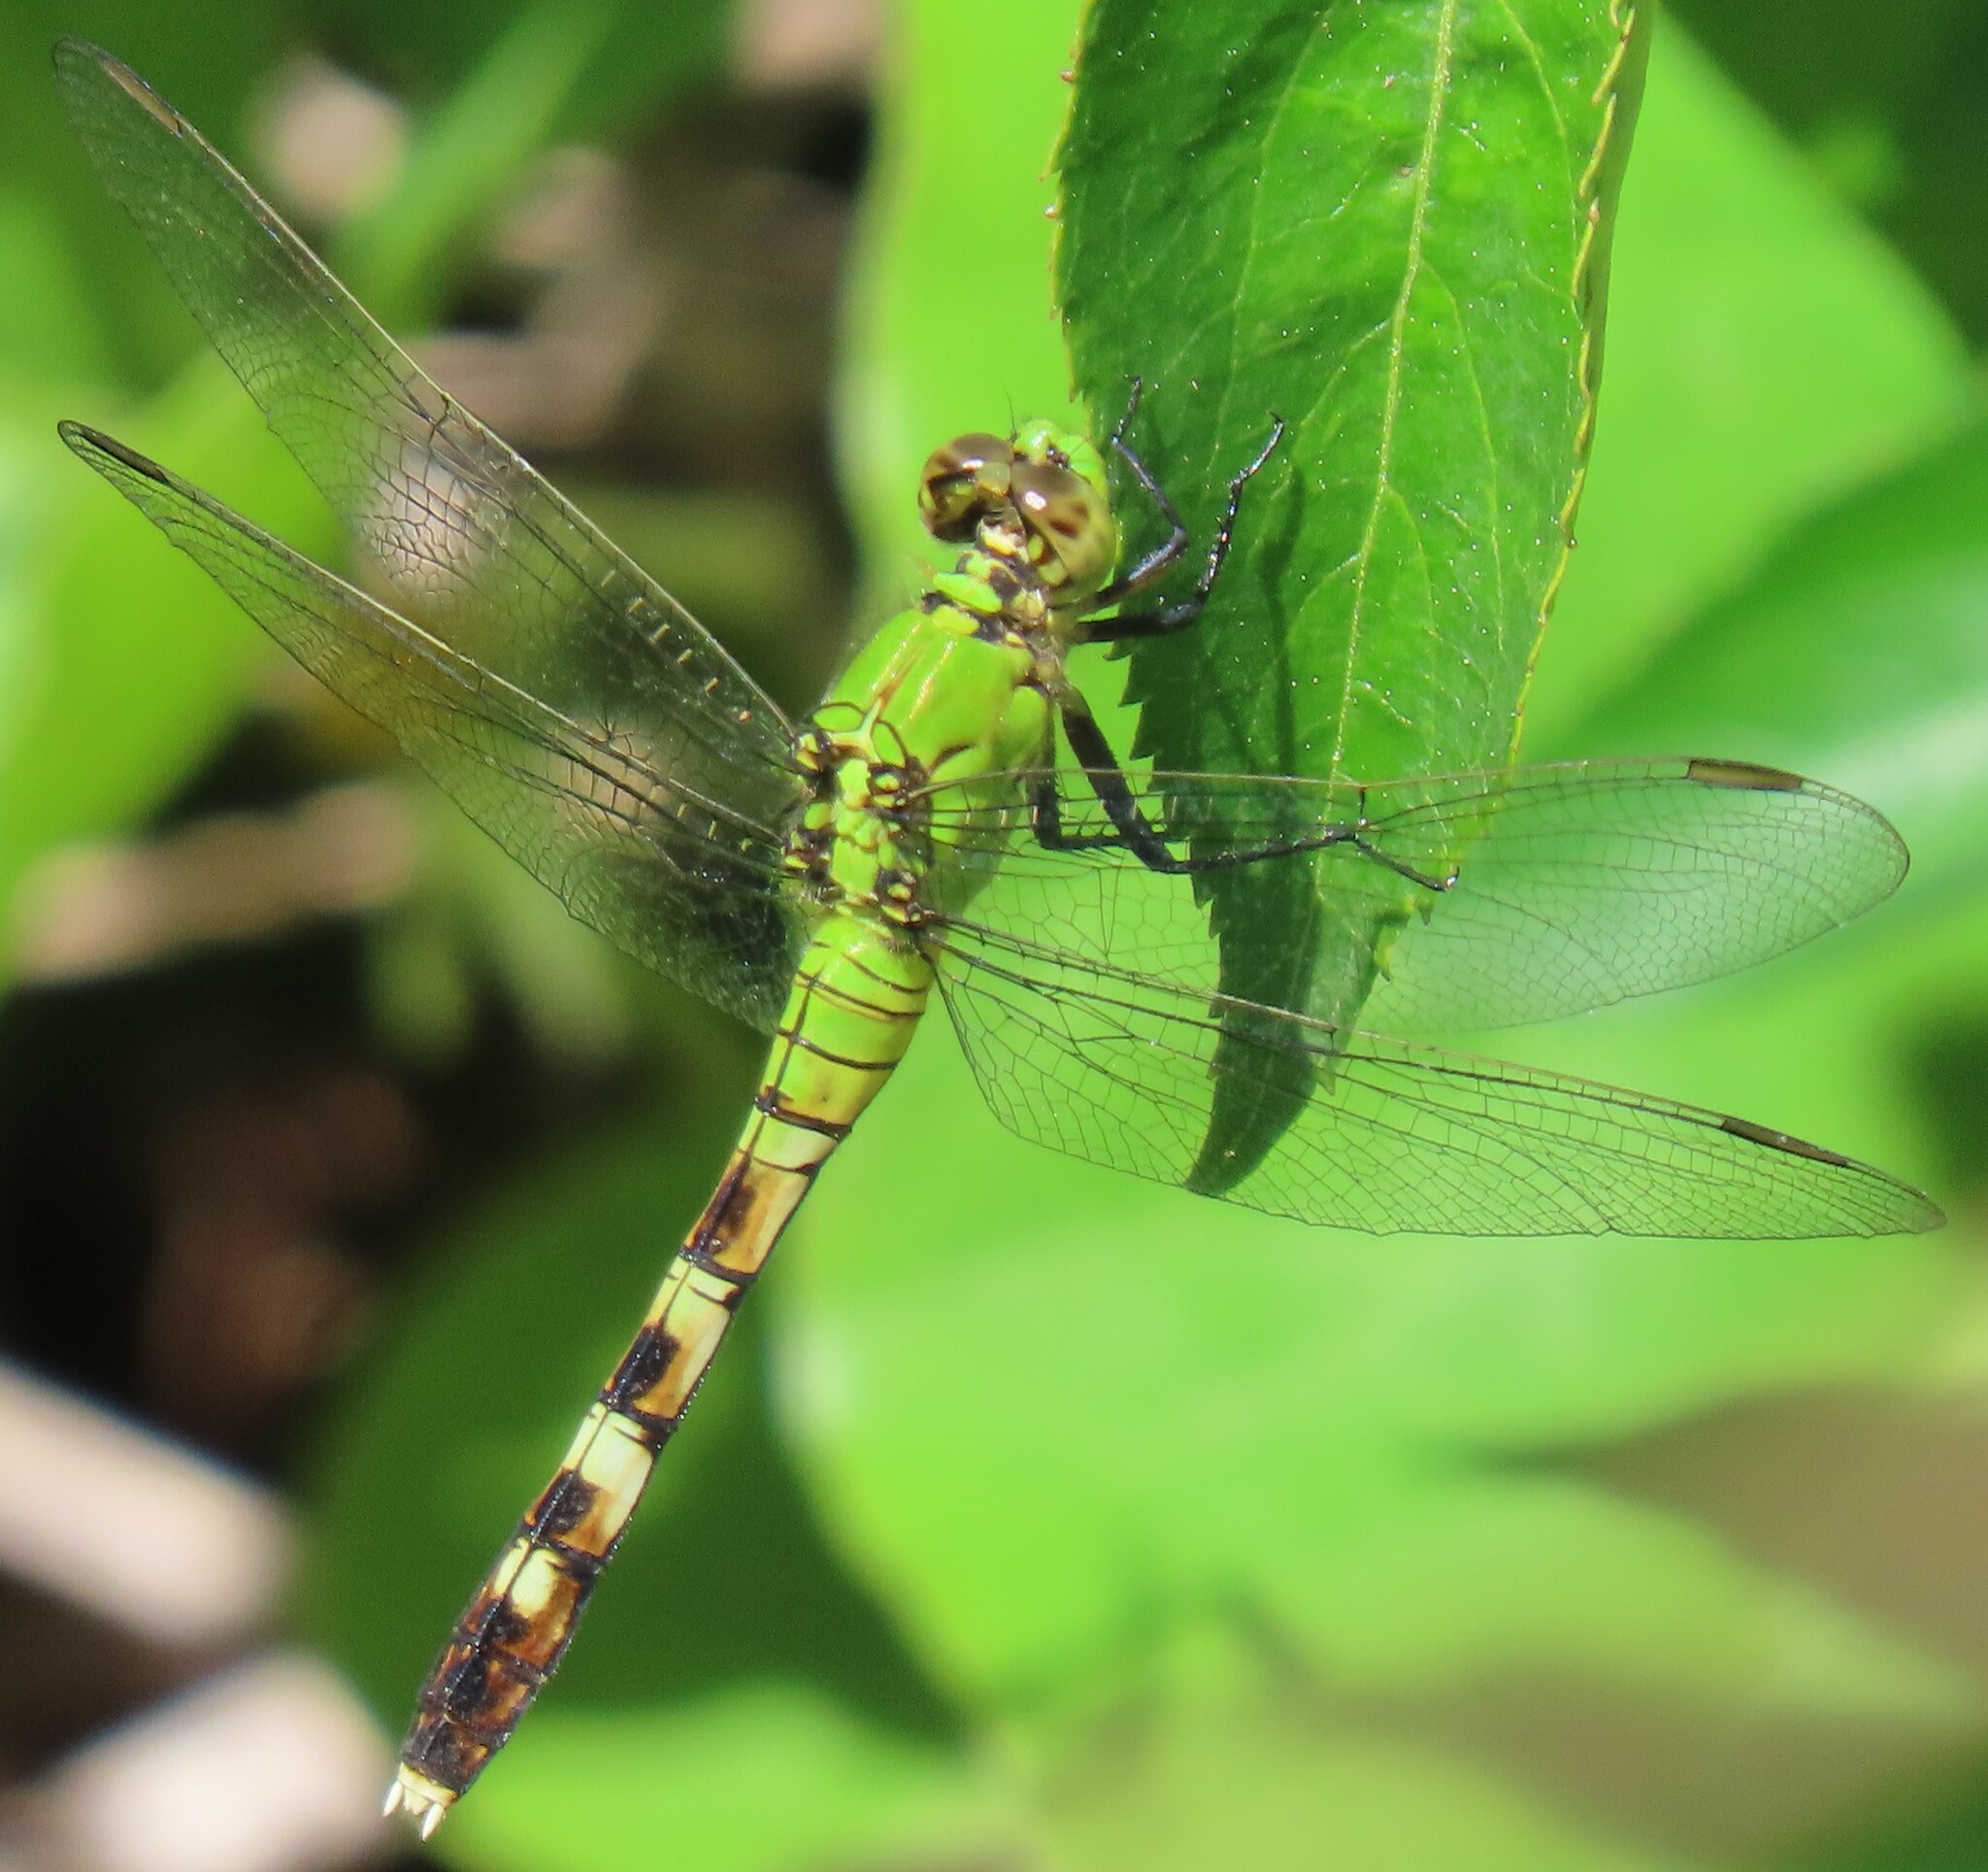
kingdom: Animalia
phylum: Arthropoda
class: Insecta
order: Odonata
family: Libellulidae
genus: Erythemis
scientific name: Erythemis simplicicollis
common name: Eastern pondhawk
